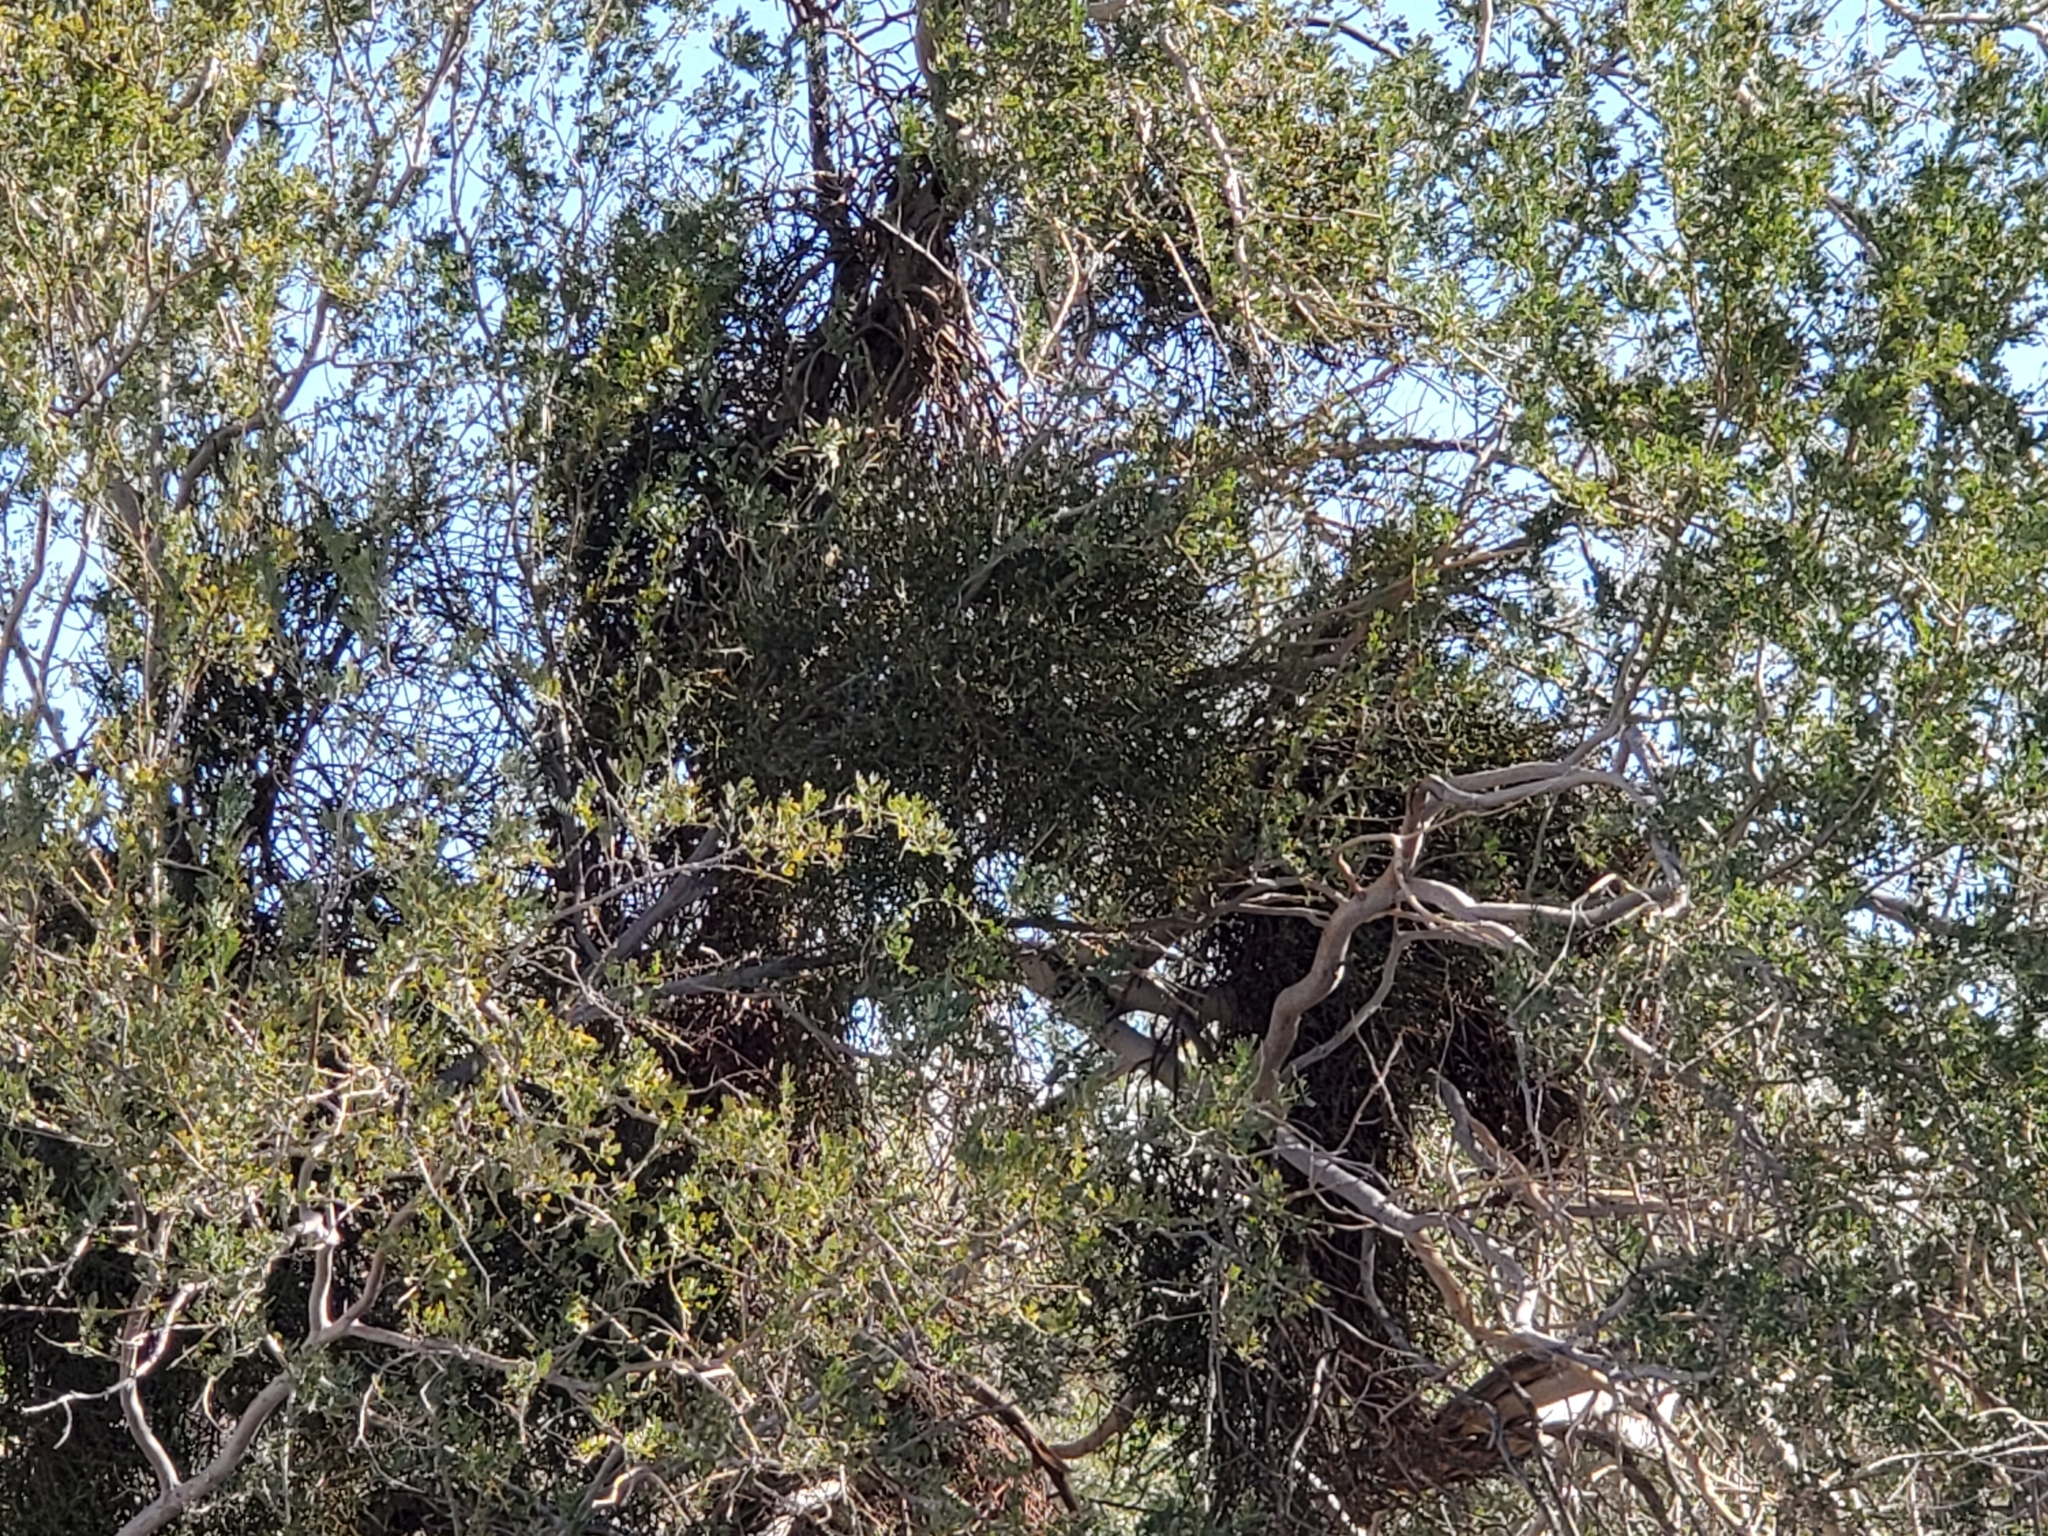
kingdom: Plantae
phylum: Tracheophyta
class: Magnoliopsida
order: Santalales
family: Viscaceae
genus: Phoradendron
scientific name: Phoradendron californicum
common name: Acacia mistletoe
